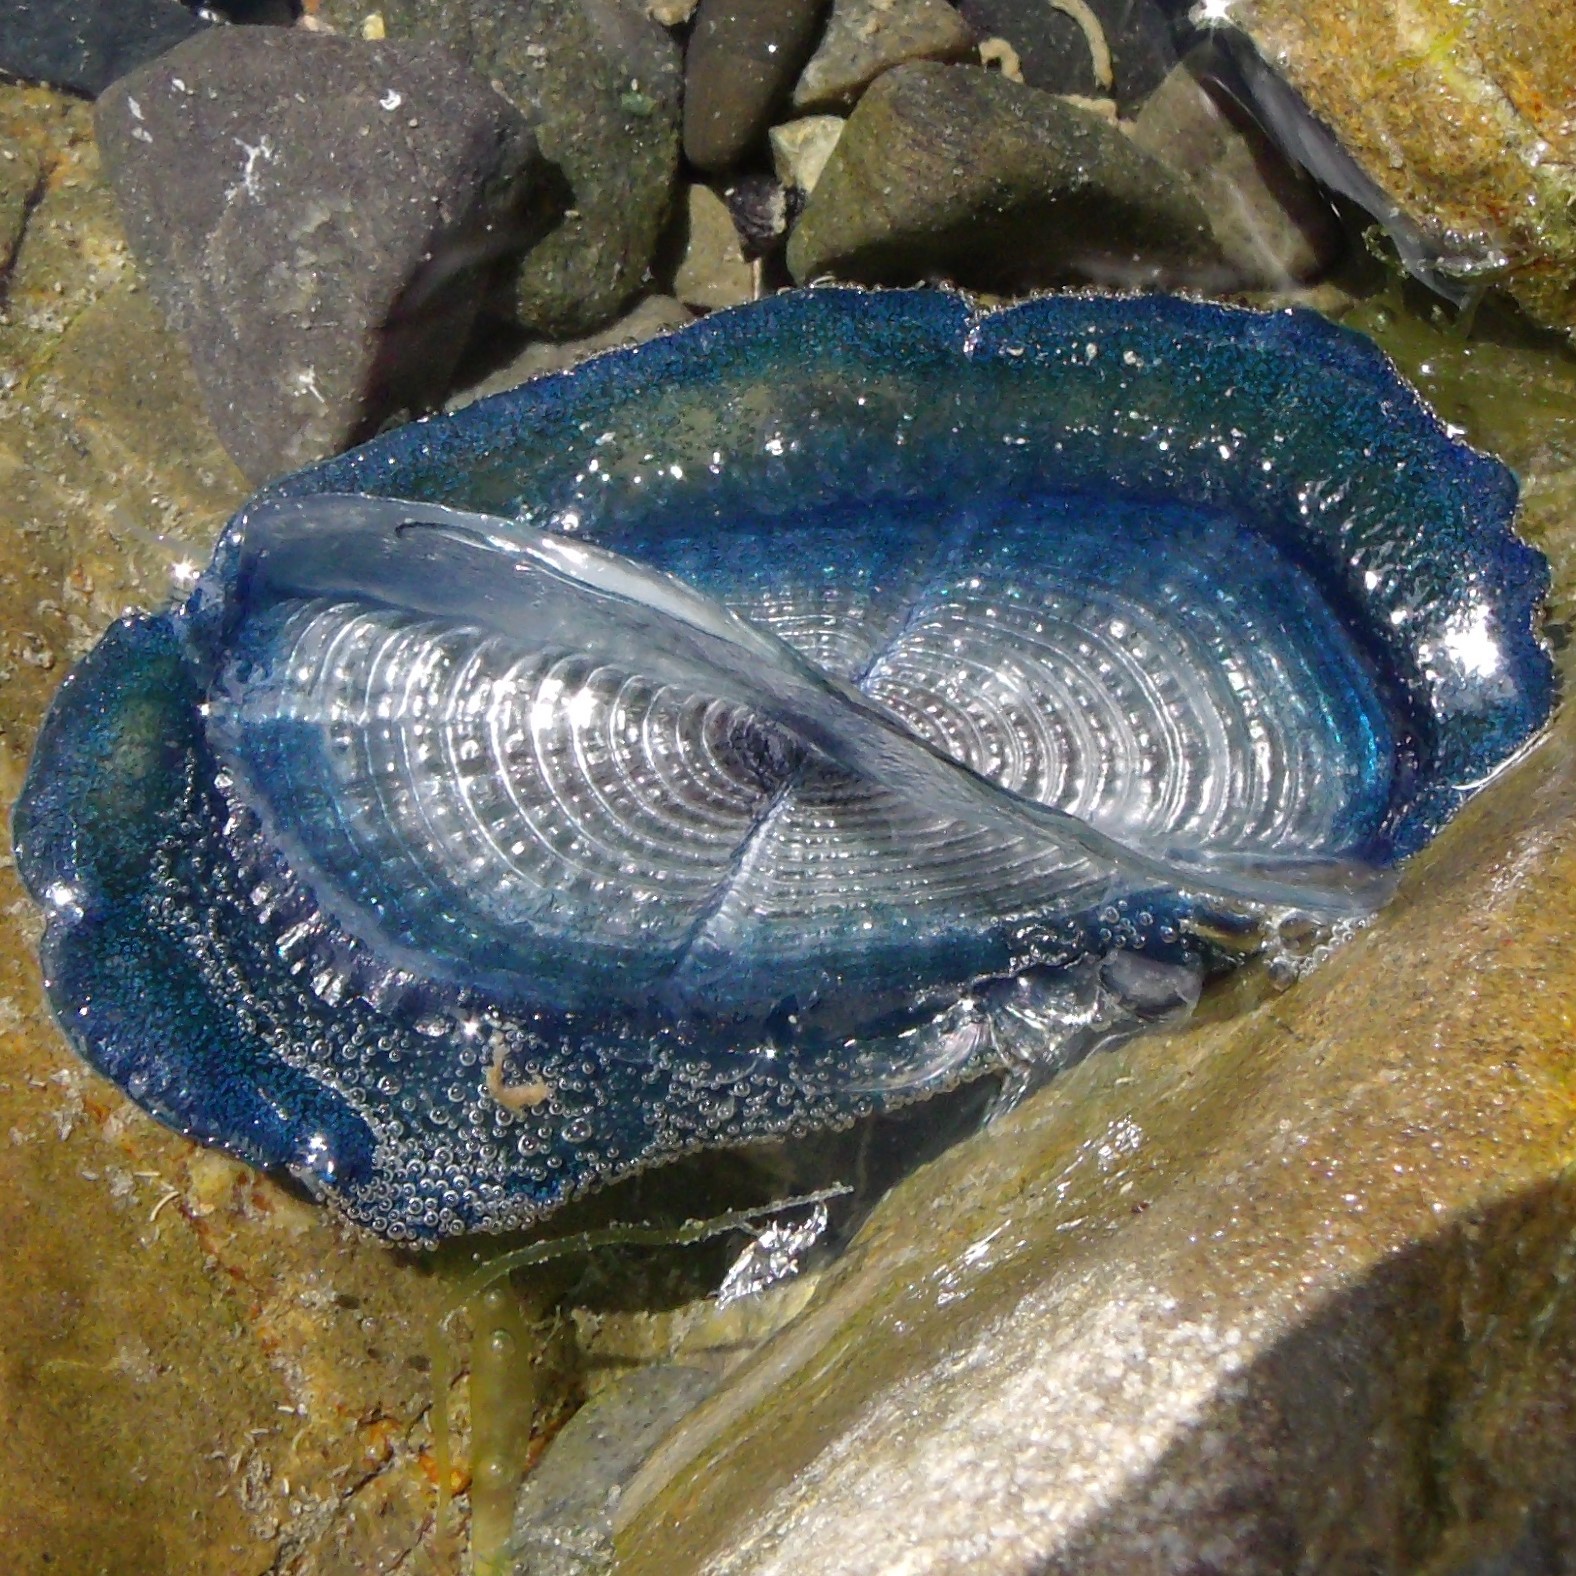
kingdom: Animalia
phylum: Cnidaria
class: Hydrozoa
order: Anthoathecata
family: Porpitidae
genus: Velella
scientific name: Velella velella
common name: By-the-wind-sailor
